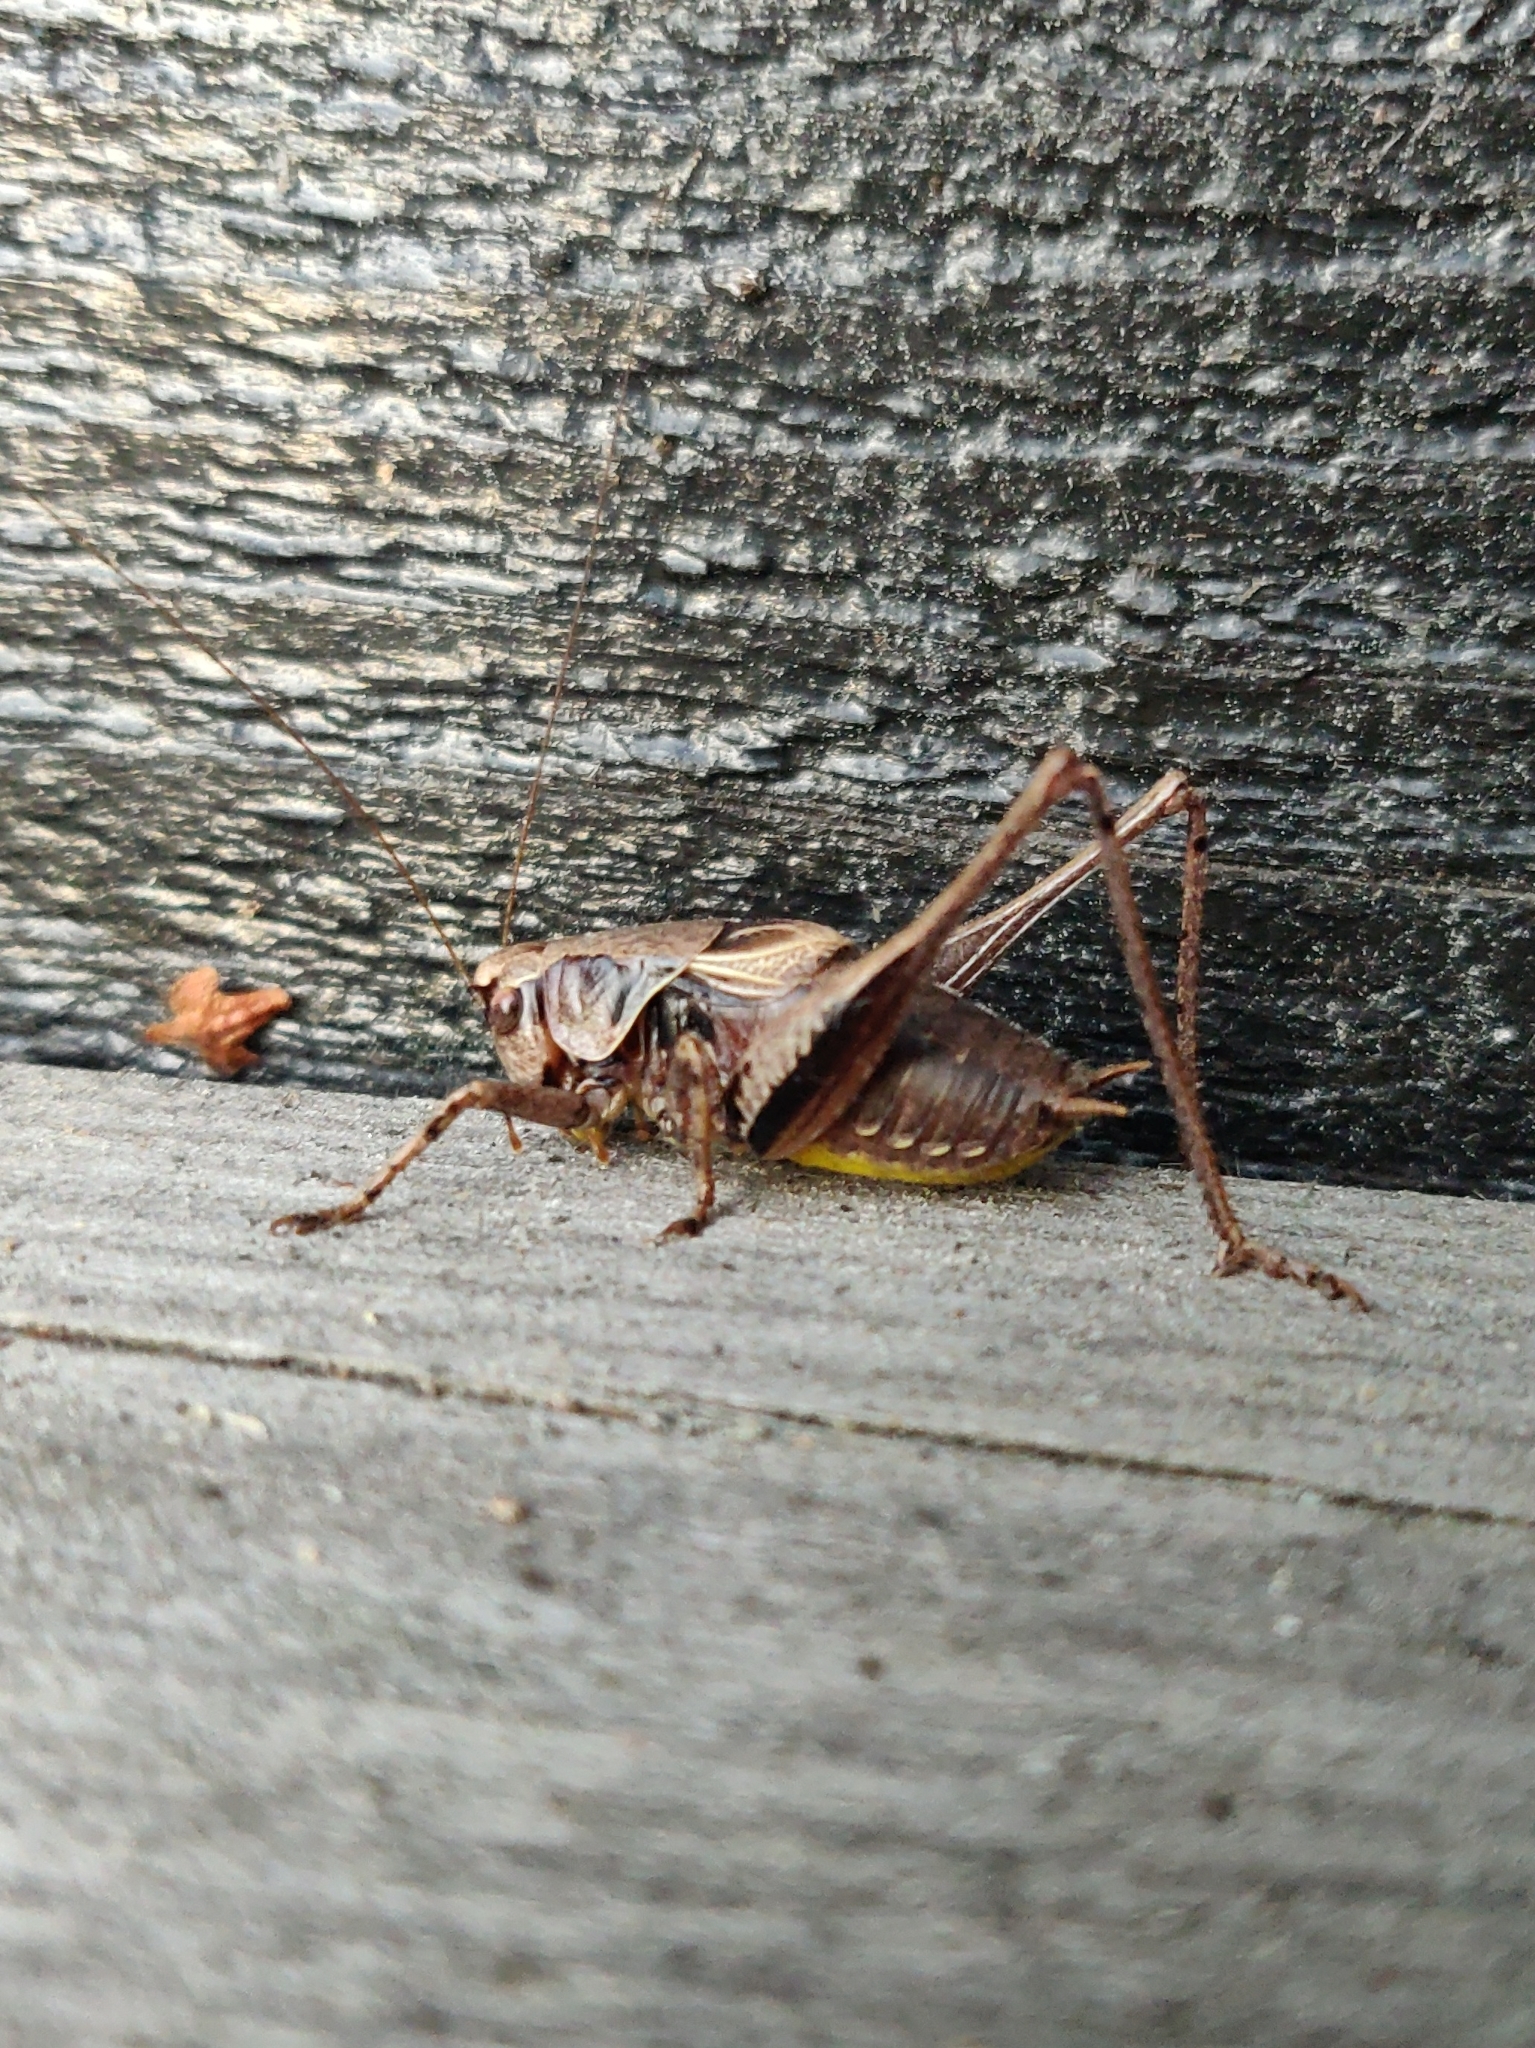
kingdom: Animalia
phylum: Arthropoda
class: Insecta
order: Orthoptera
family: Tettigoniidae
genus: Pholidoptera
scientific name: Pholidoptera griseoaptera
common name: Dark bush-cricket
